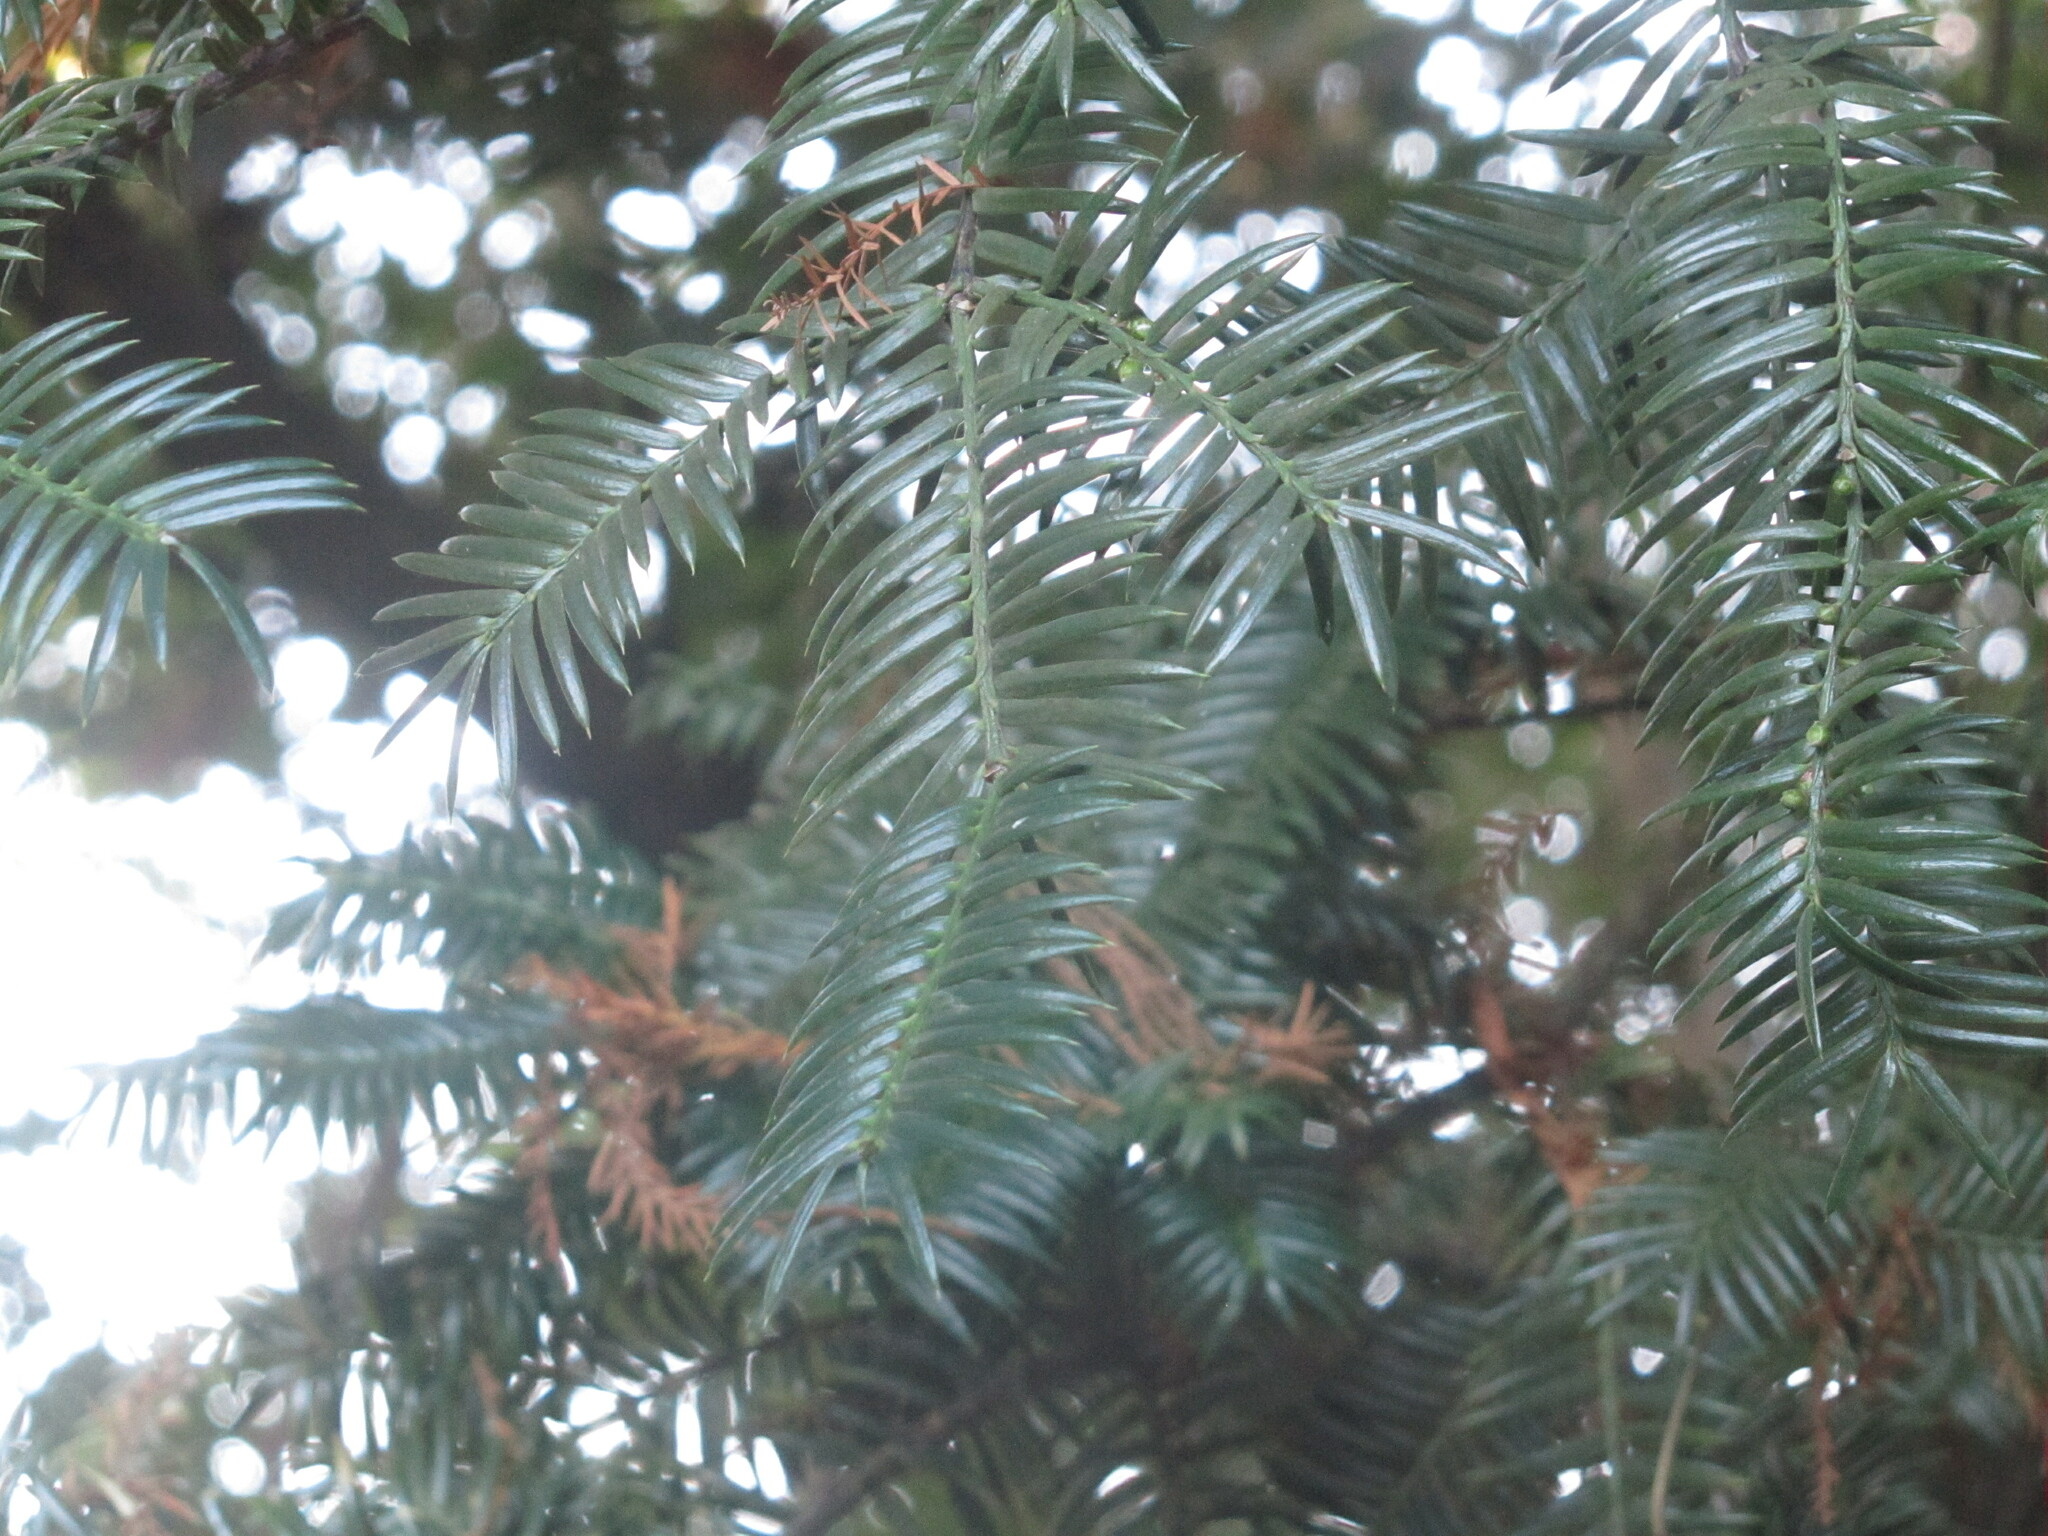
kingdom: Plantae
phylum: Tracheophyta
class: Pinopsida
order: Pinales
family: Taxaceae
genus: Torreya
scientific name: Torreya nucifera
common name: Japanese nutmeg tree
